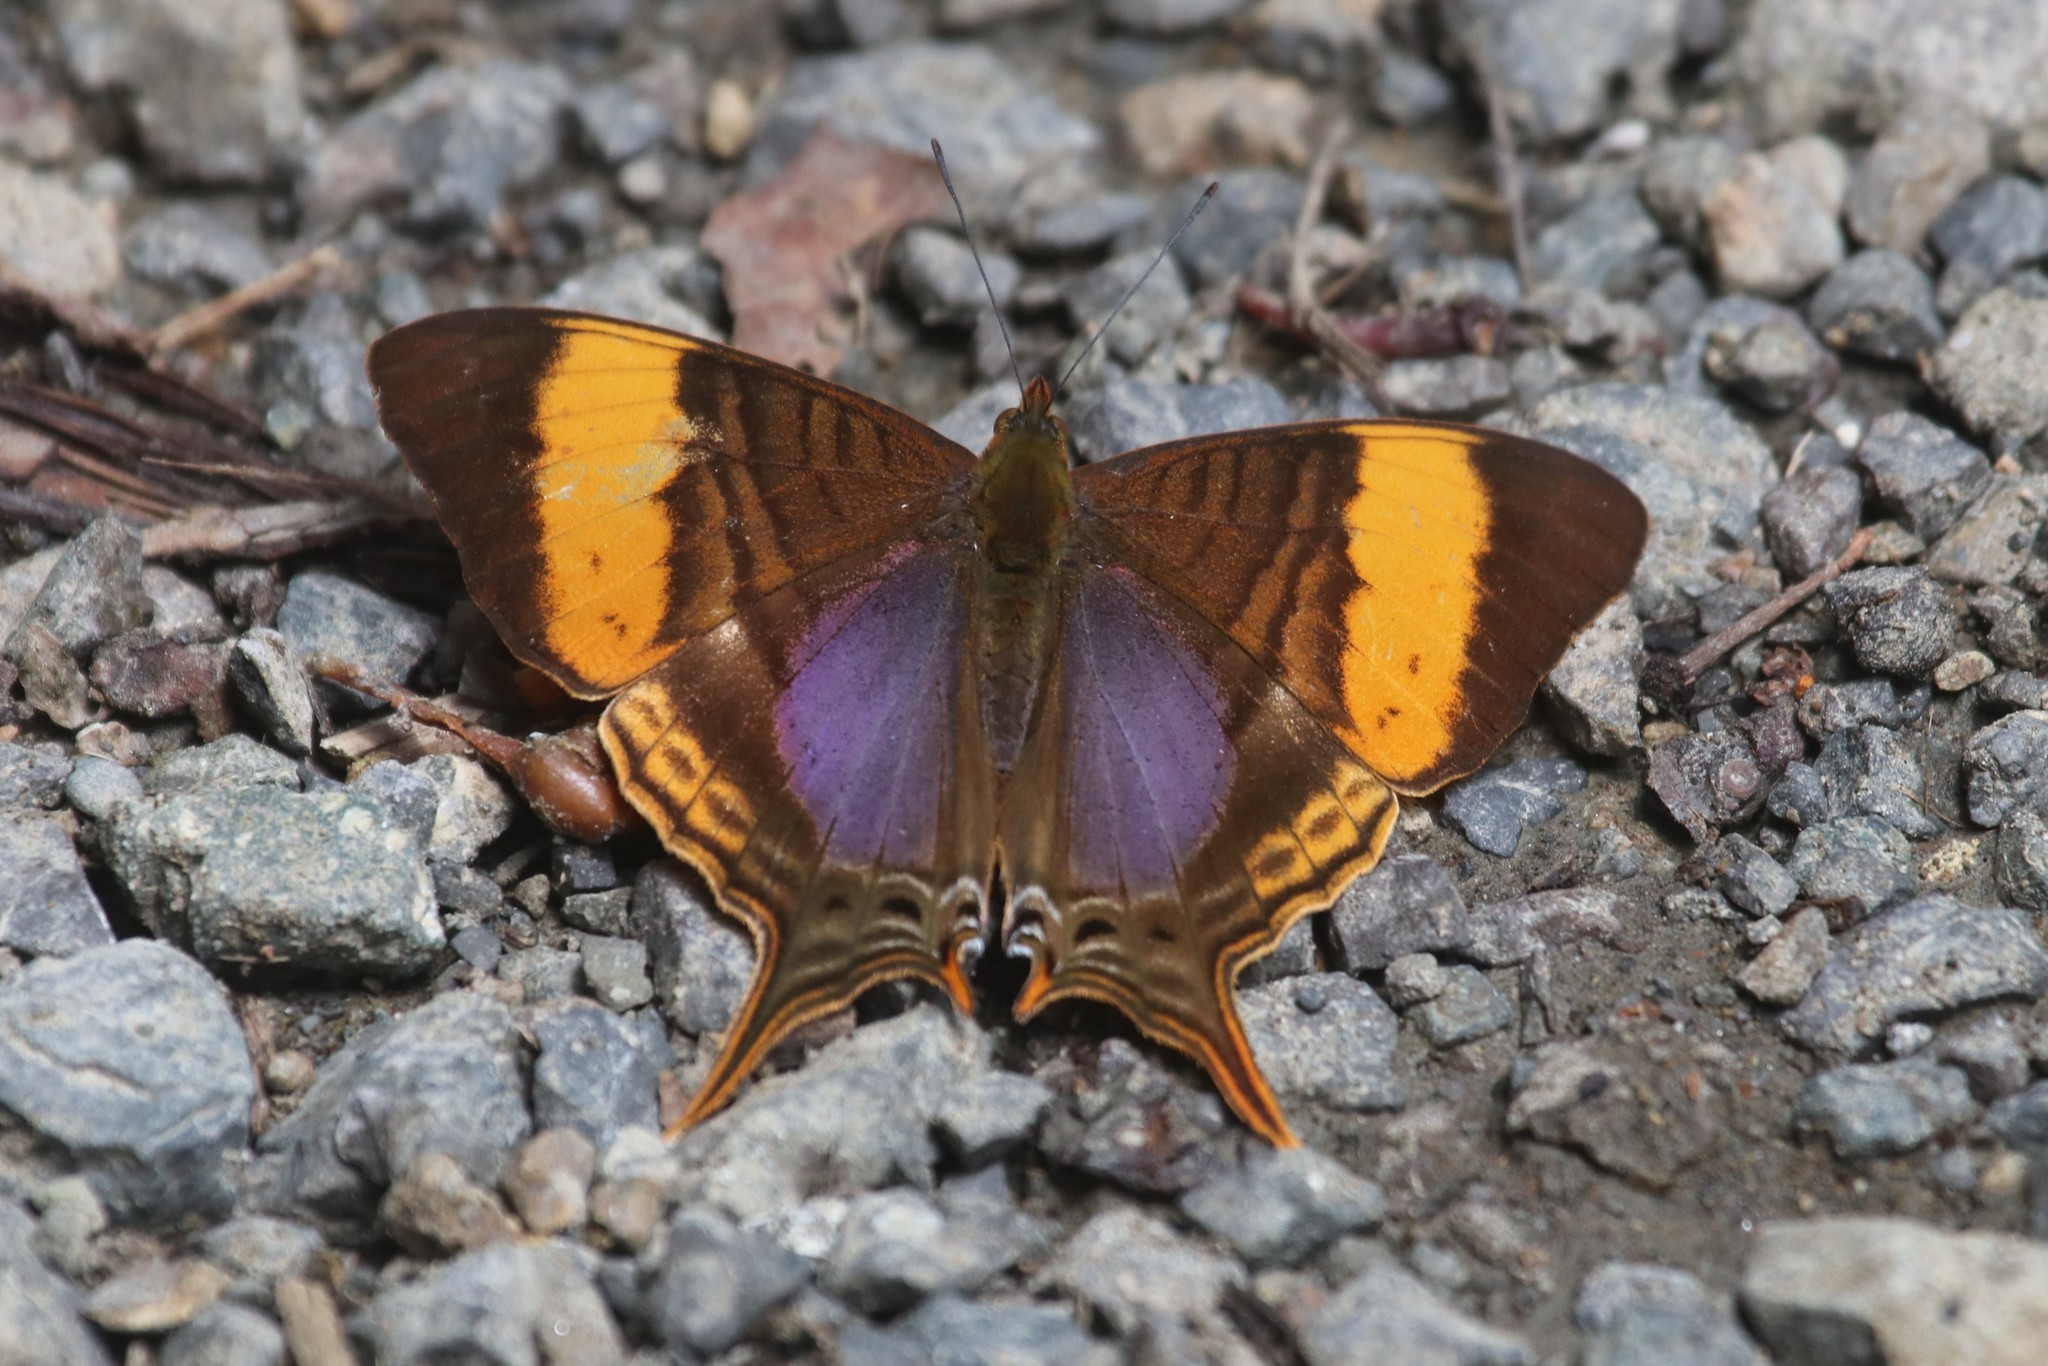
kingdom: Animalia
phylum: Arthropoda
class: Insecta
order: Lepidoptera
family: Nymphalidae
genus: Marpesia
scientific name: Marpesia corinna
